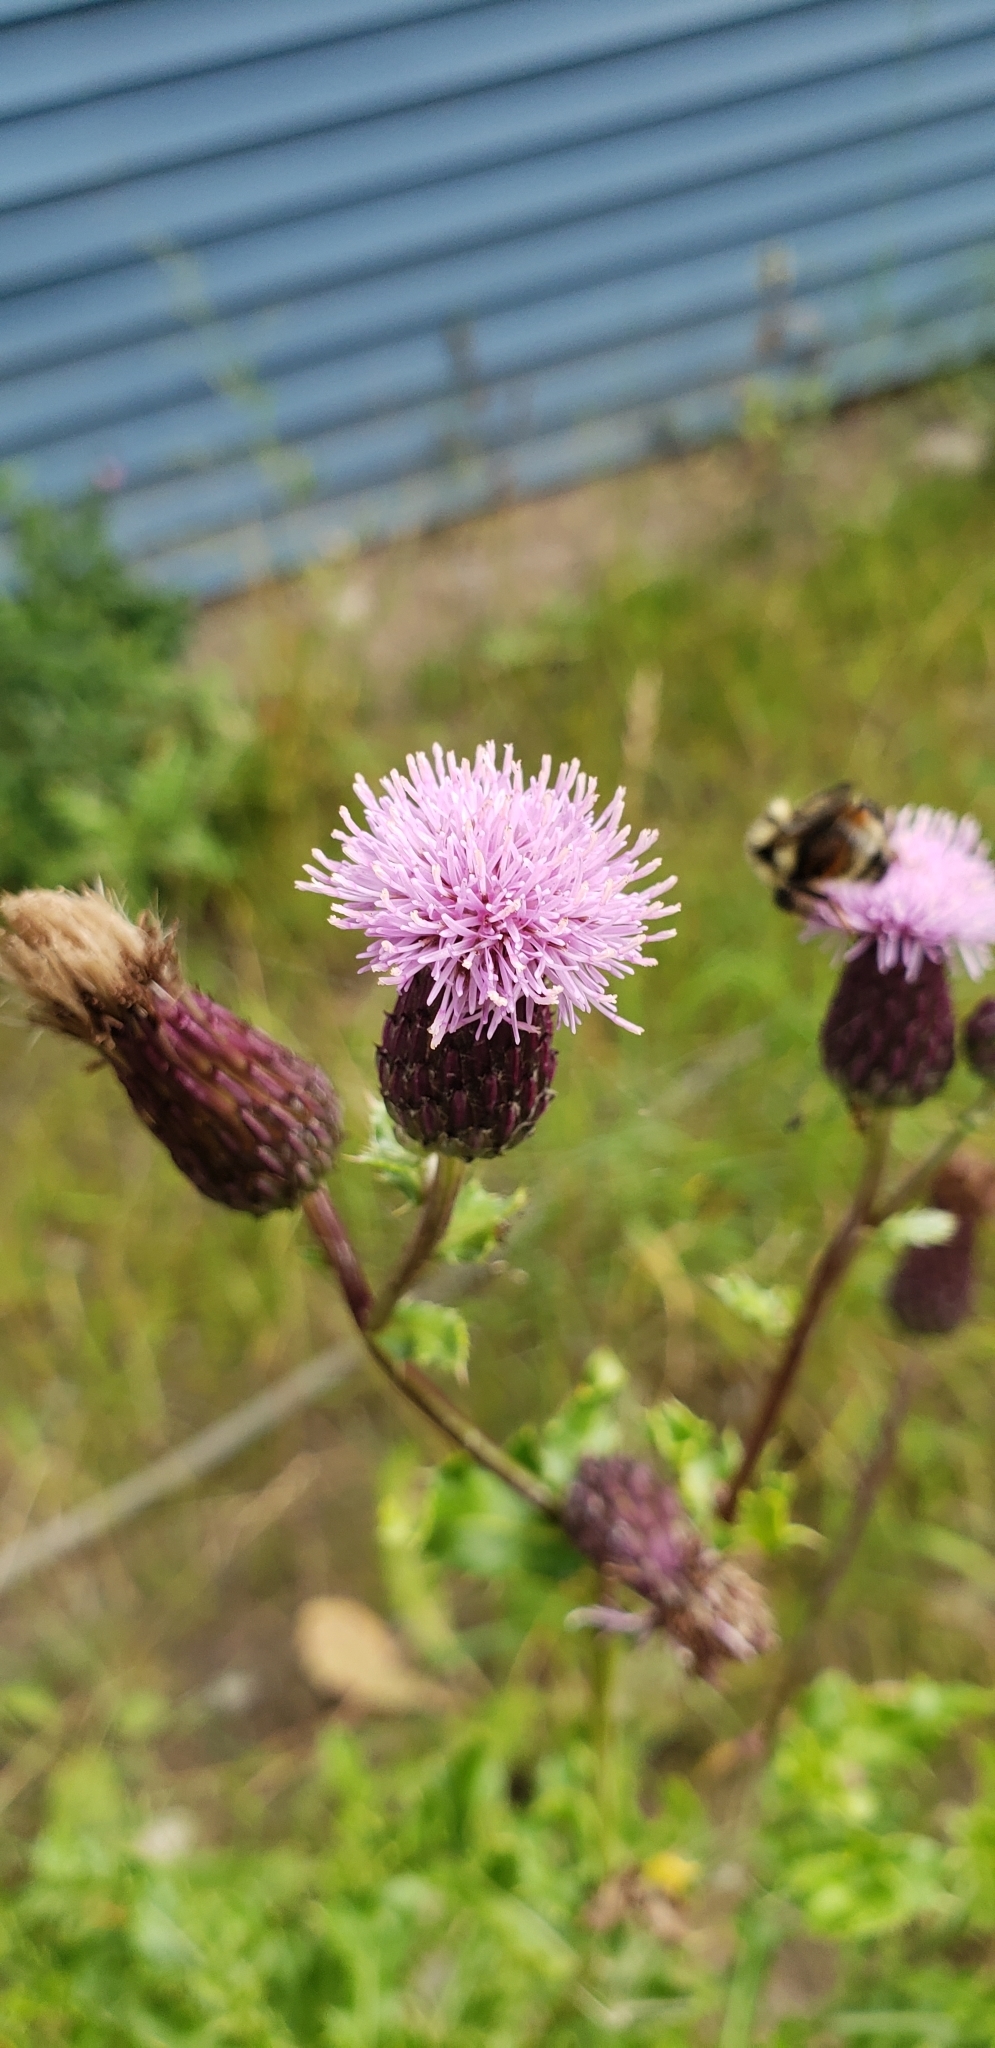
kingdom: Plantae
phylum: Tracheophyta
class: Magnoliopsida
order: Asterales
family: Asteraceae
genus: Cirsium
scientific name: Cirsium arvense
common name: Creeping thistle
